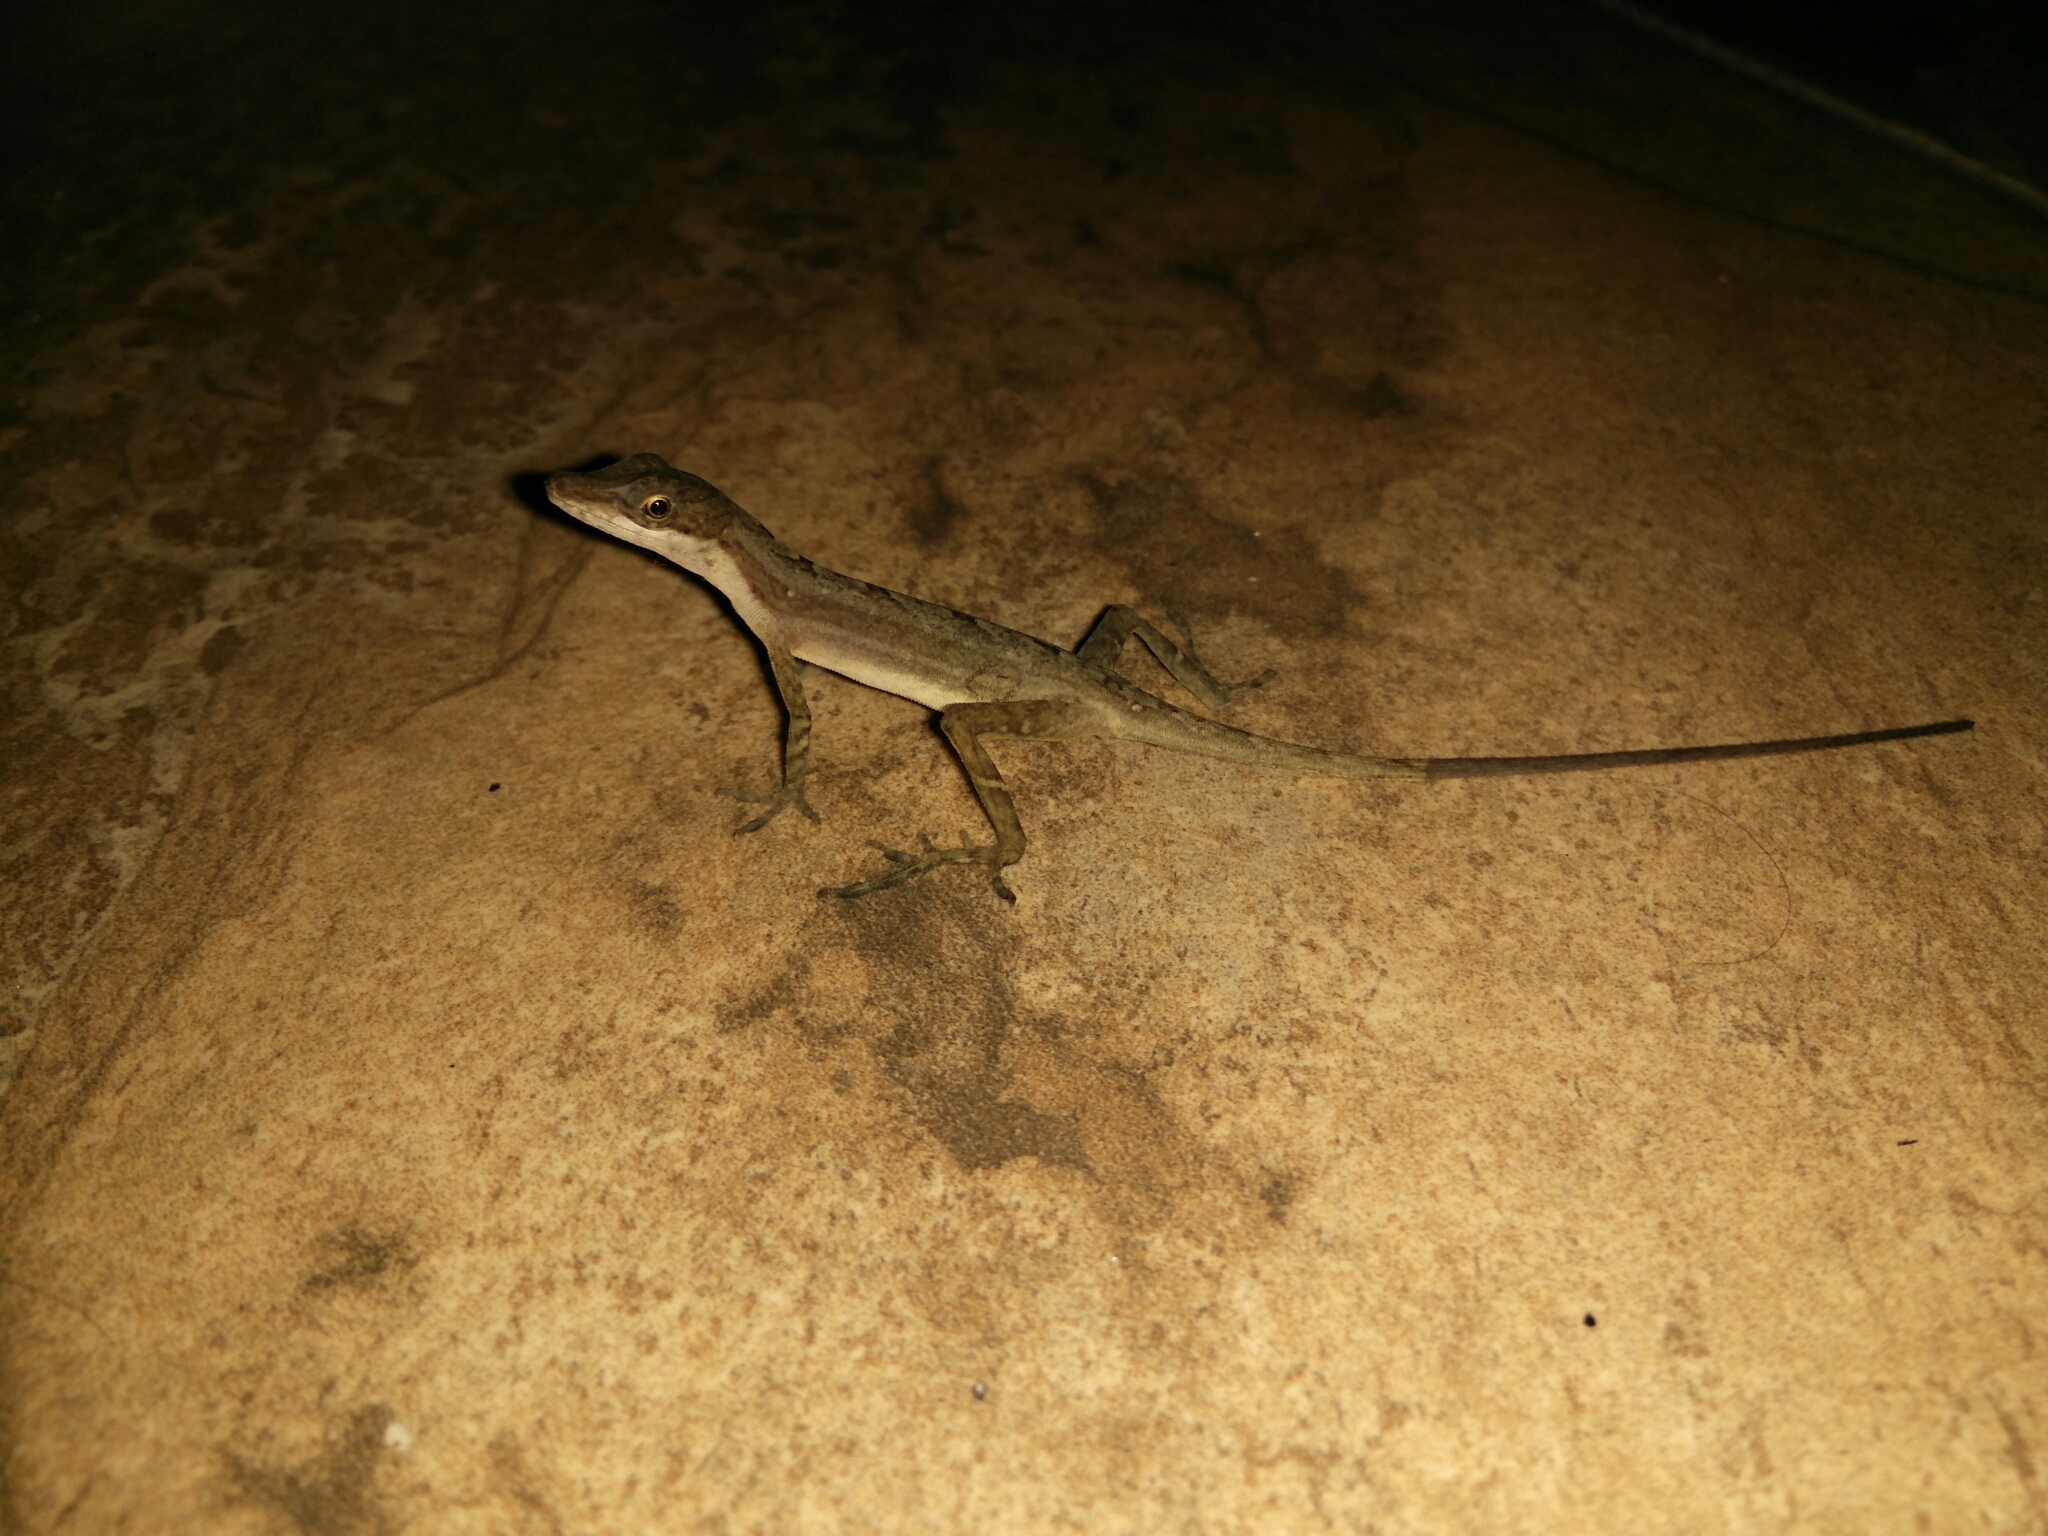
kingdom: Animalia
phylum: Chordata
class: Squamata
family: Dactyloidae
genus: Anolis
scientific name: Anolis limifrons
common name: Border anole
